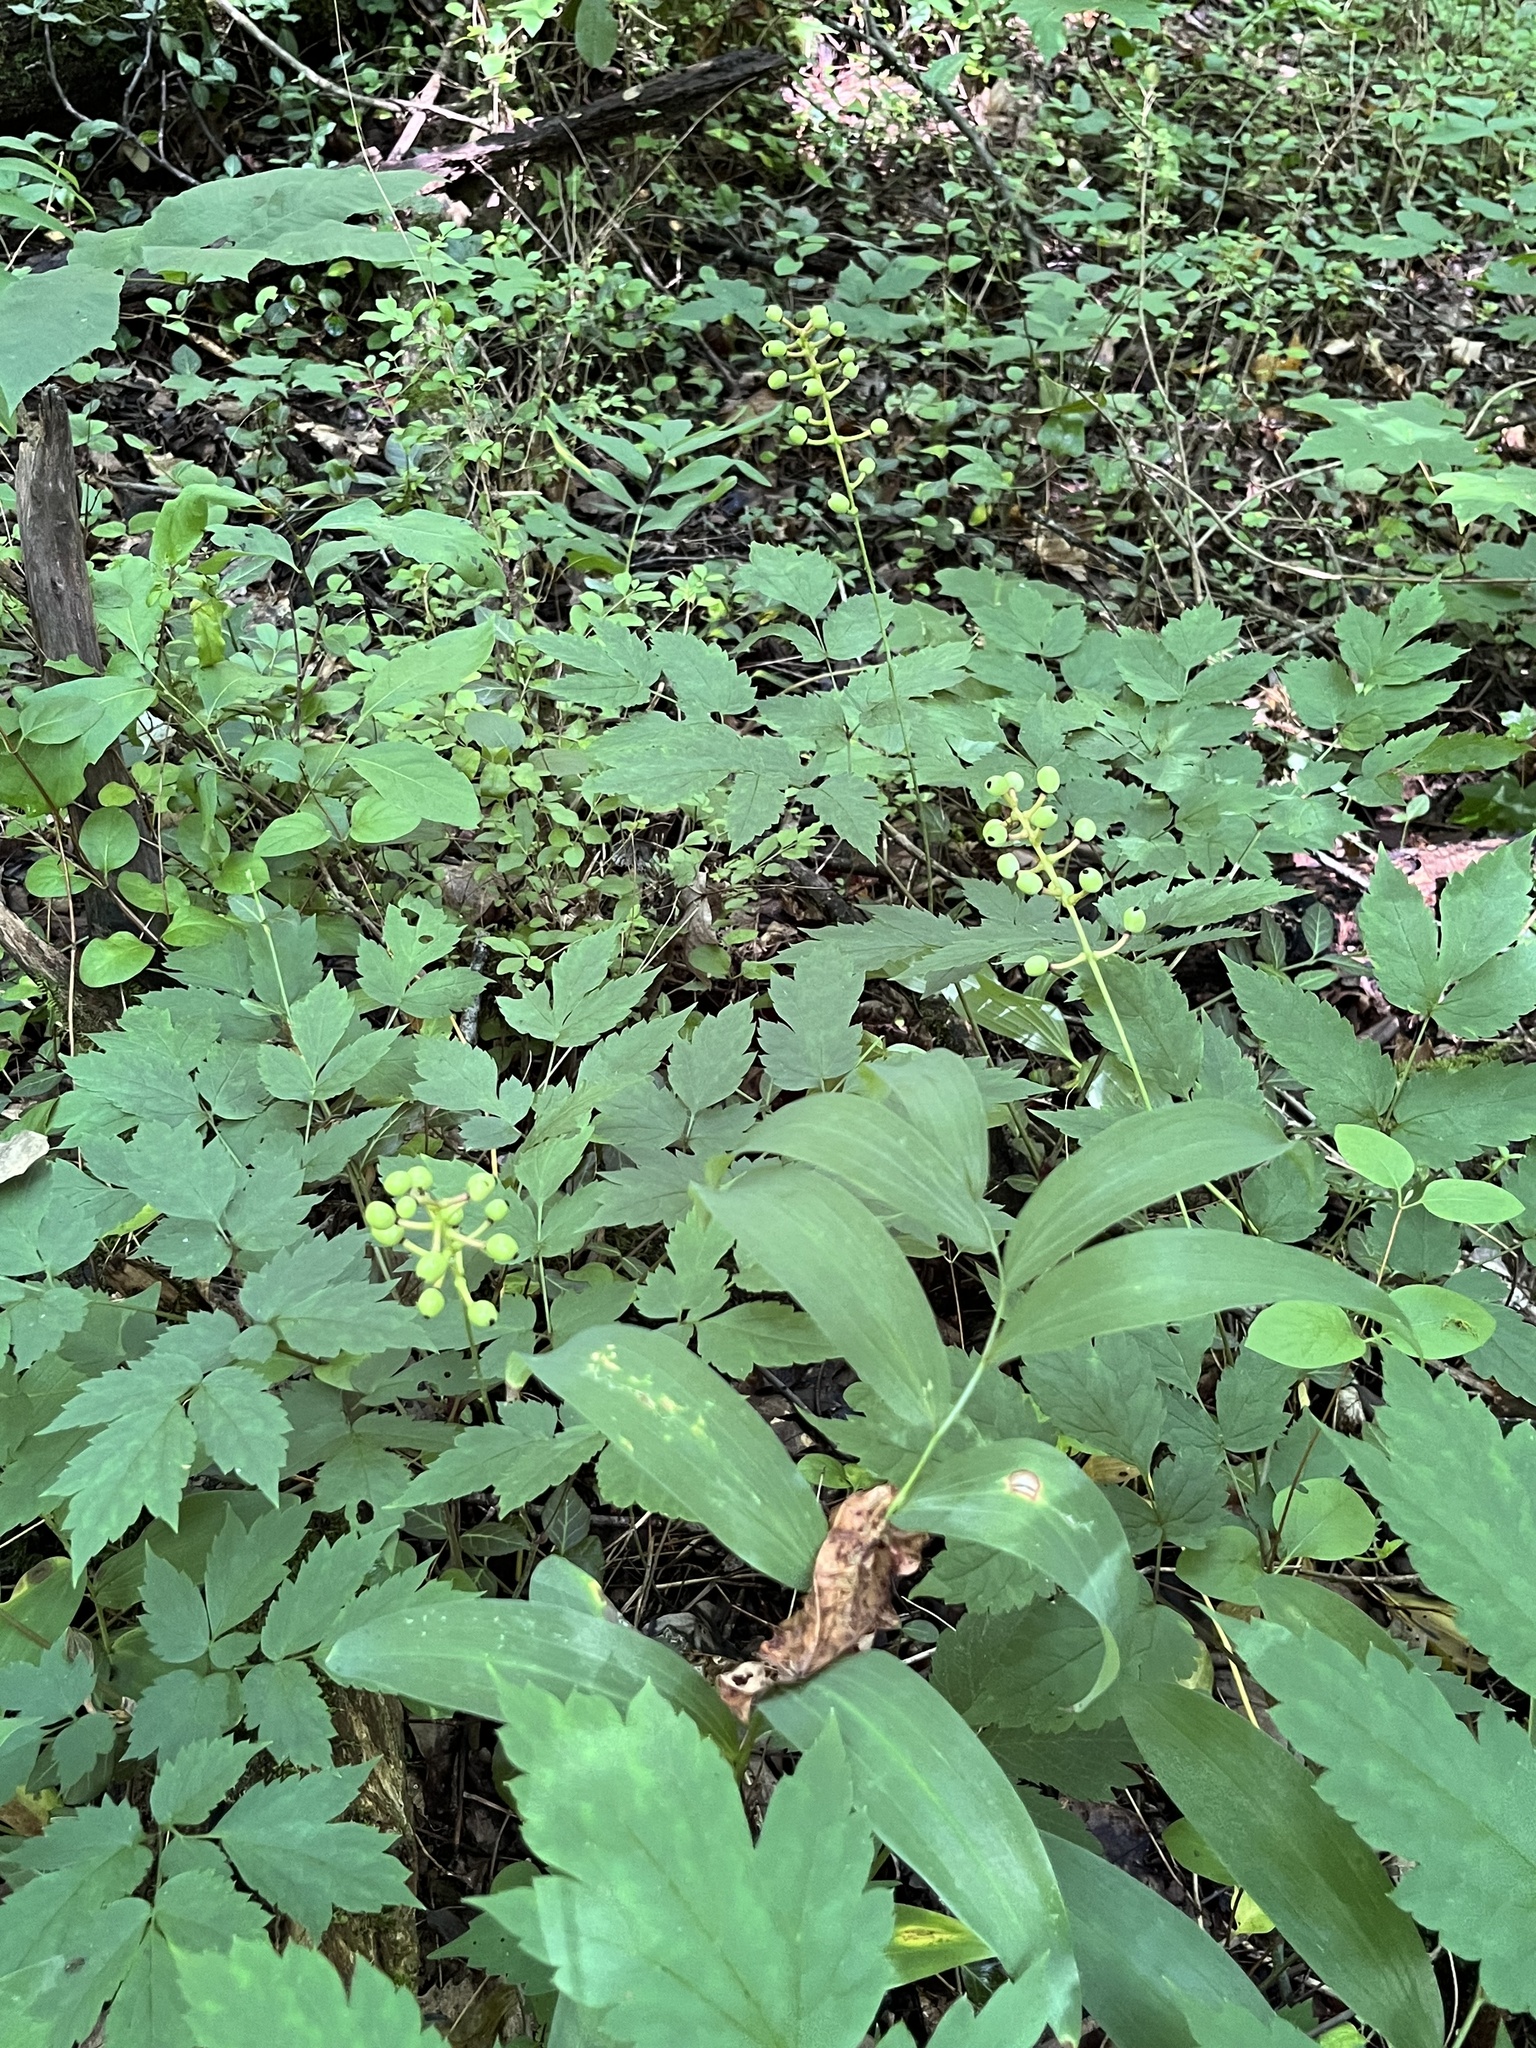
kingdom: Plantae
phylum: Tracheophyta
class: Magnoliopsida
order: Ranunculales
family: Ranunculaceae
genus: Actaea
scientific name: Actaea pachypoda
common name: Doll's-eyes
